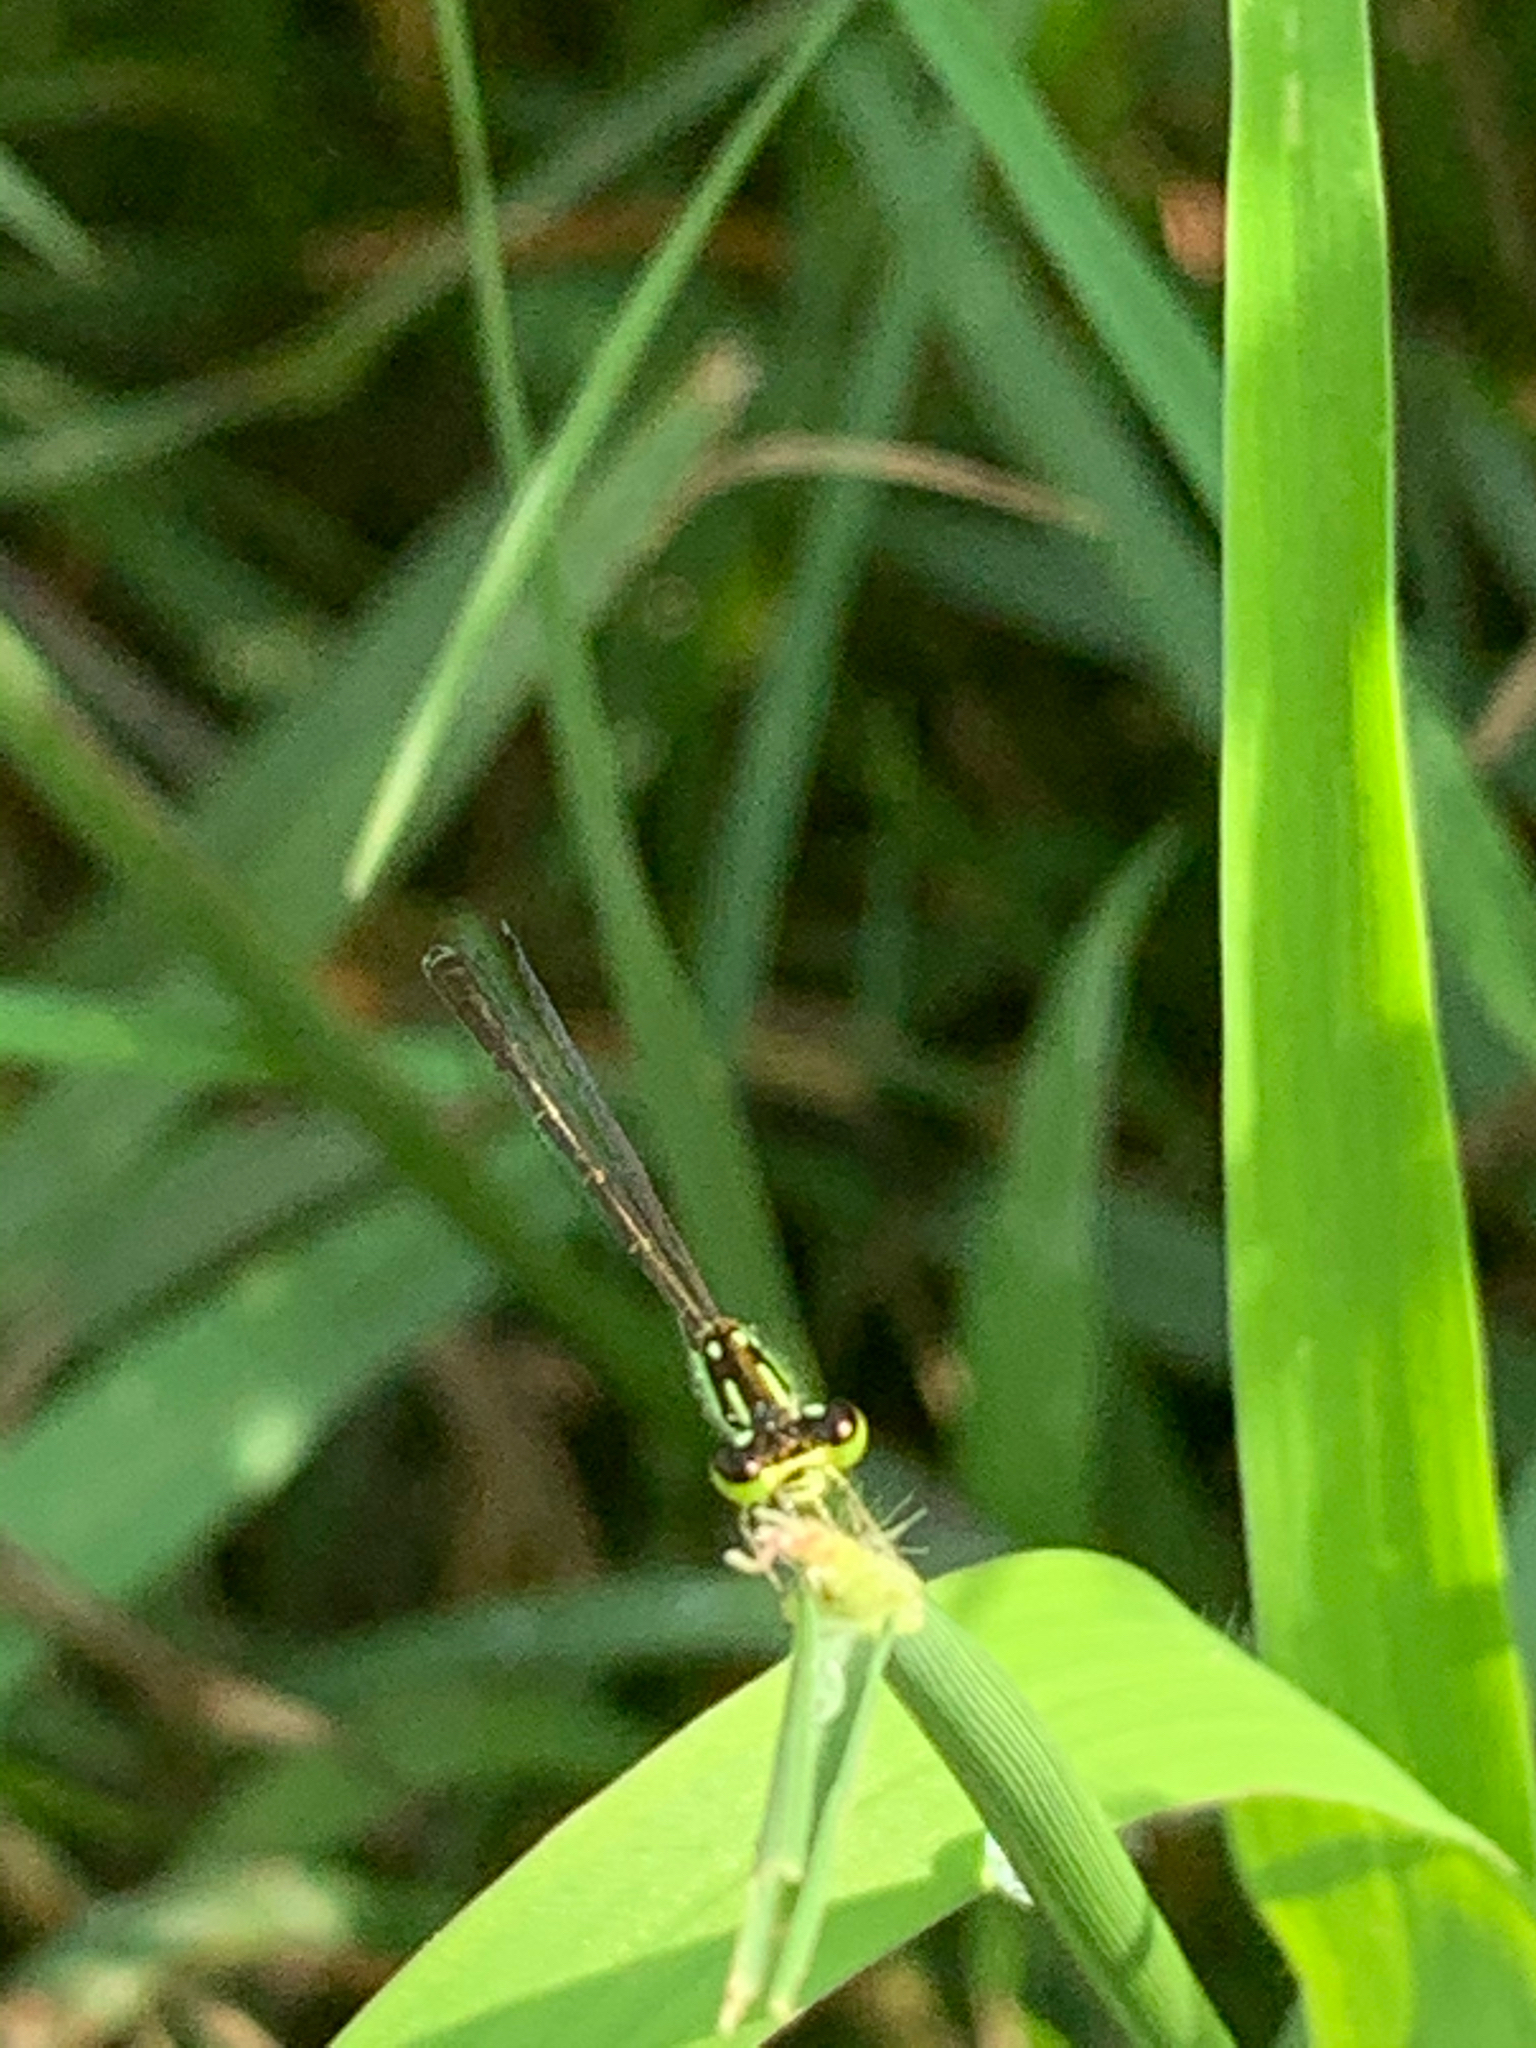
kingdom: Animalia
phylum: Arthropoda
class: Insecta
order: Odonata
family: Coenagrionidae
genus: Ischnura
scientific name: Ischnura posita
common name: Fragile forktail
